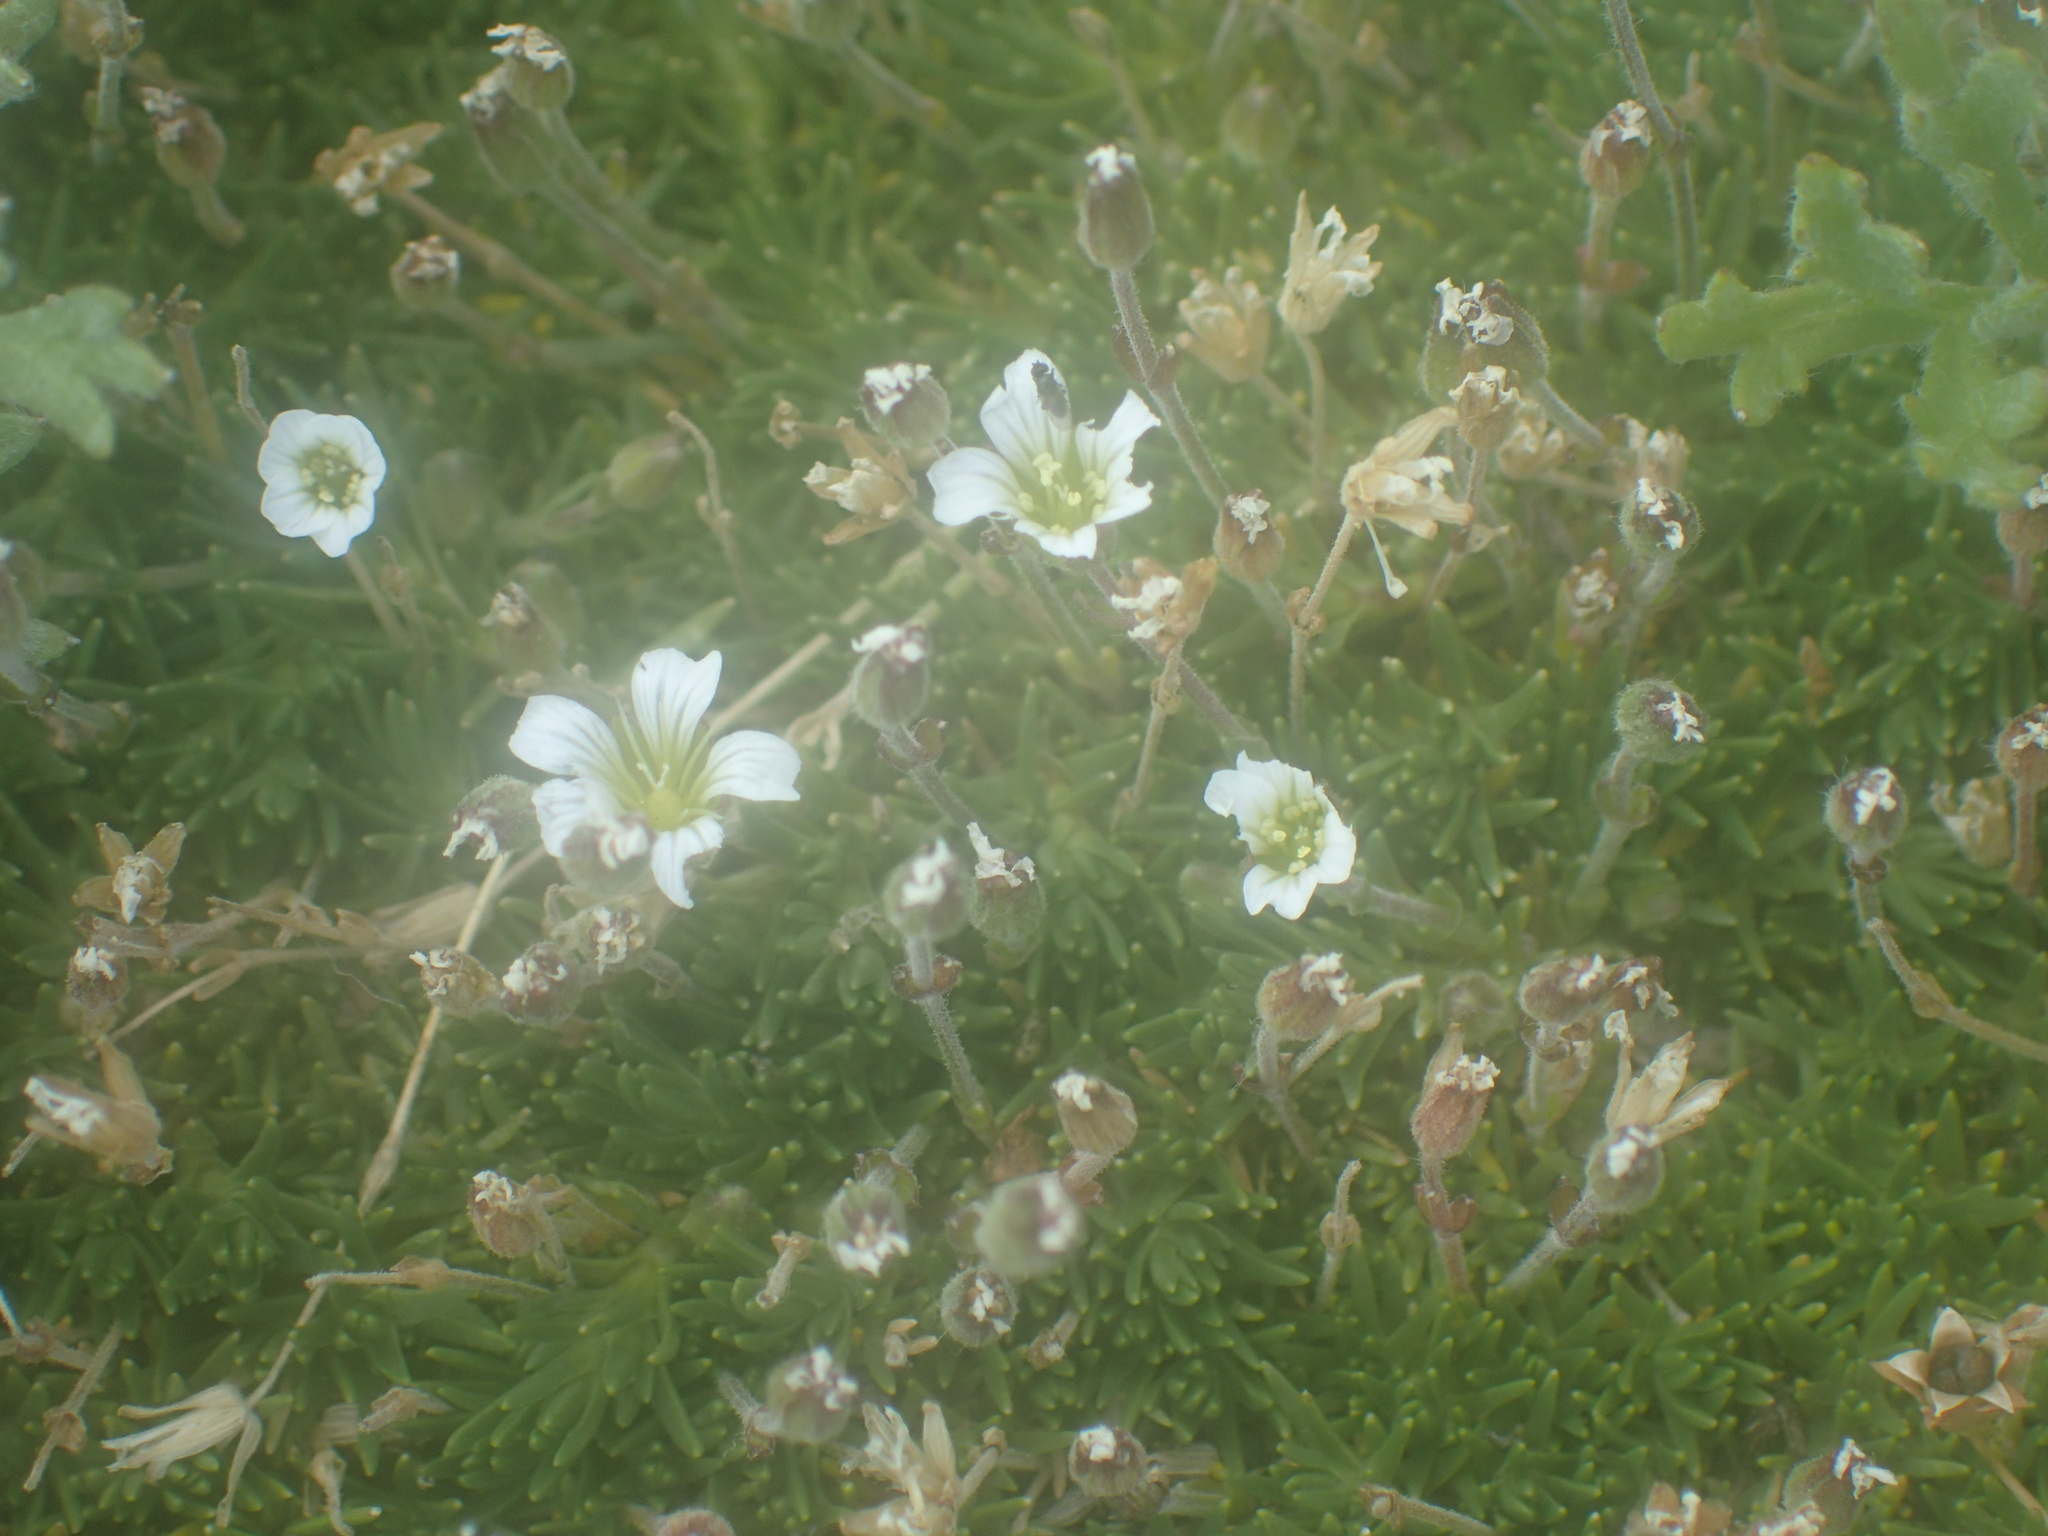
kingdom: Plantae
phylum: Tracheophyta
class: Magnoliopsida
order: Caryophyllales
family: Caryophyllaceae
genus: Cherleria
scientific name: Cherleria obtusiloba
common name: Alpine stitchwort
